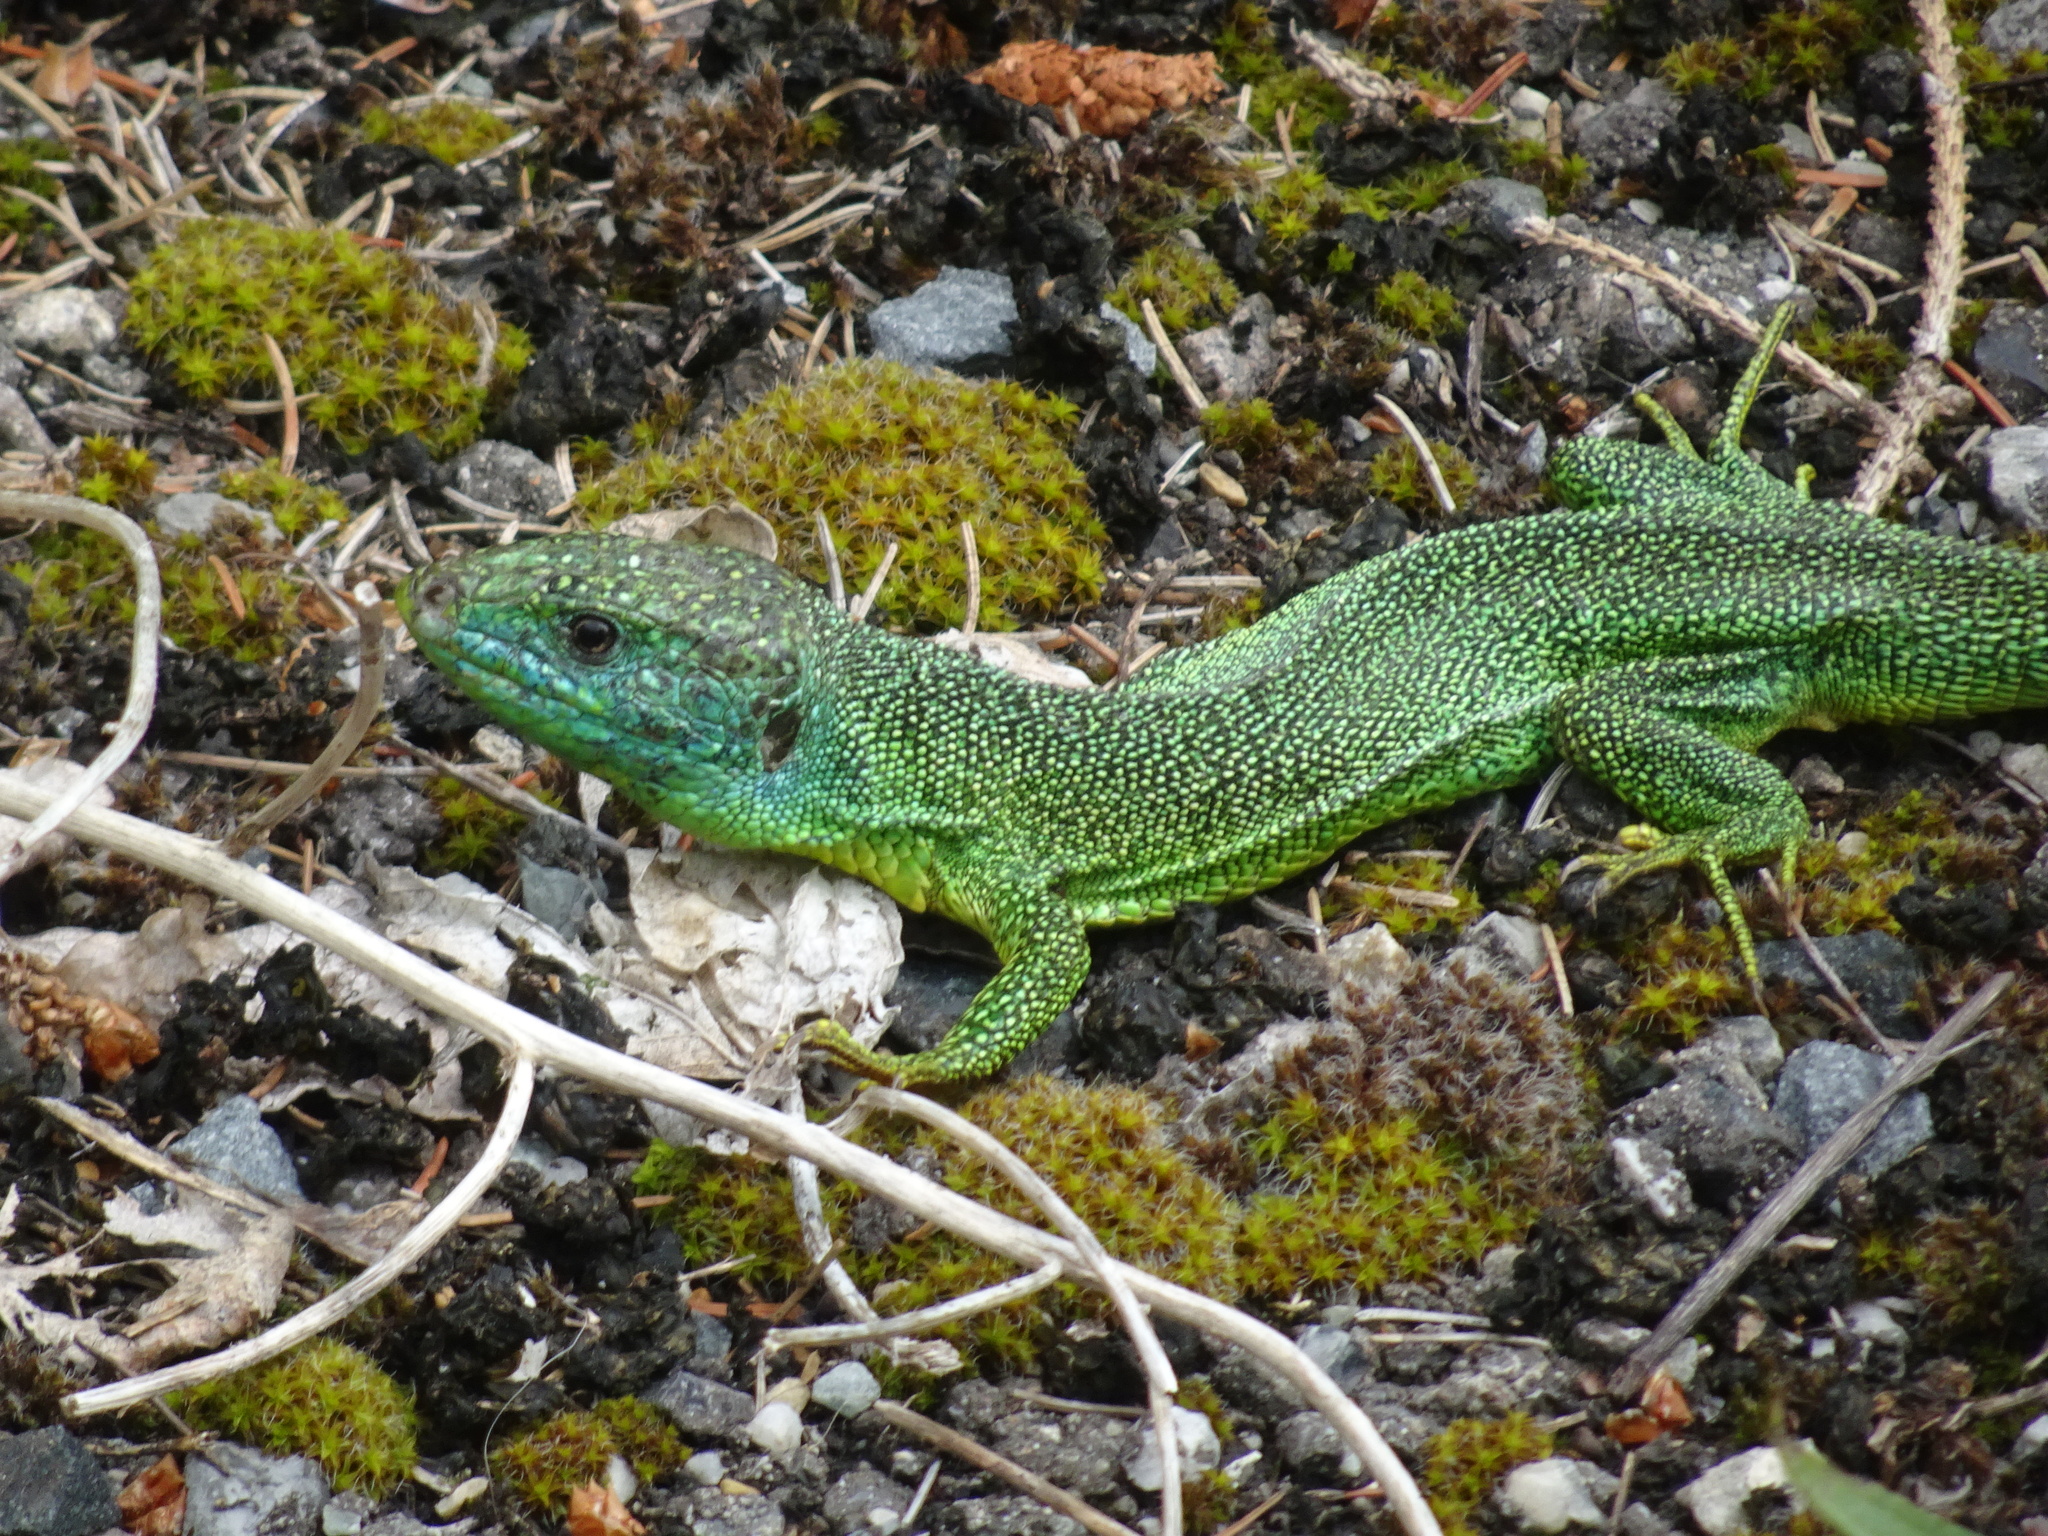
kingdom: Animalia
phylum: Chordata
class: Squamata
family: Lacertidae
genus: Lacerta
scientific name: Lacerta bilineata
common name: Western green lizard
